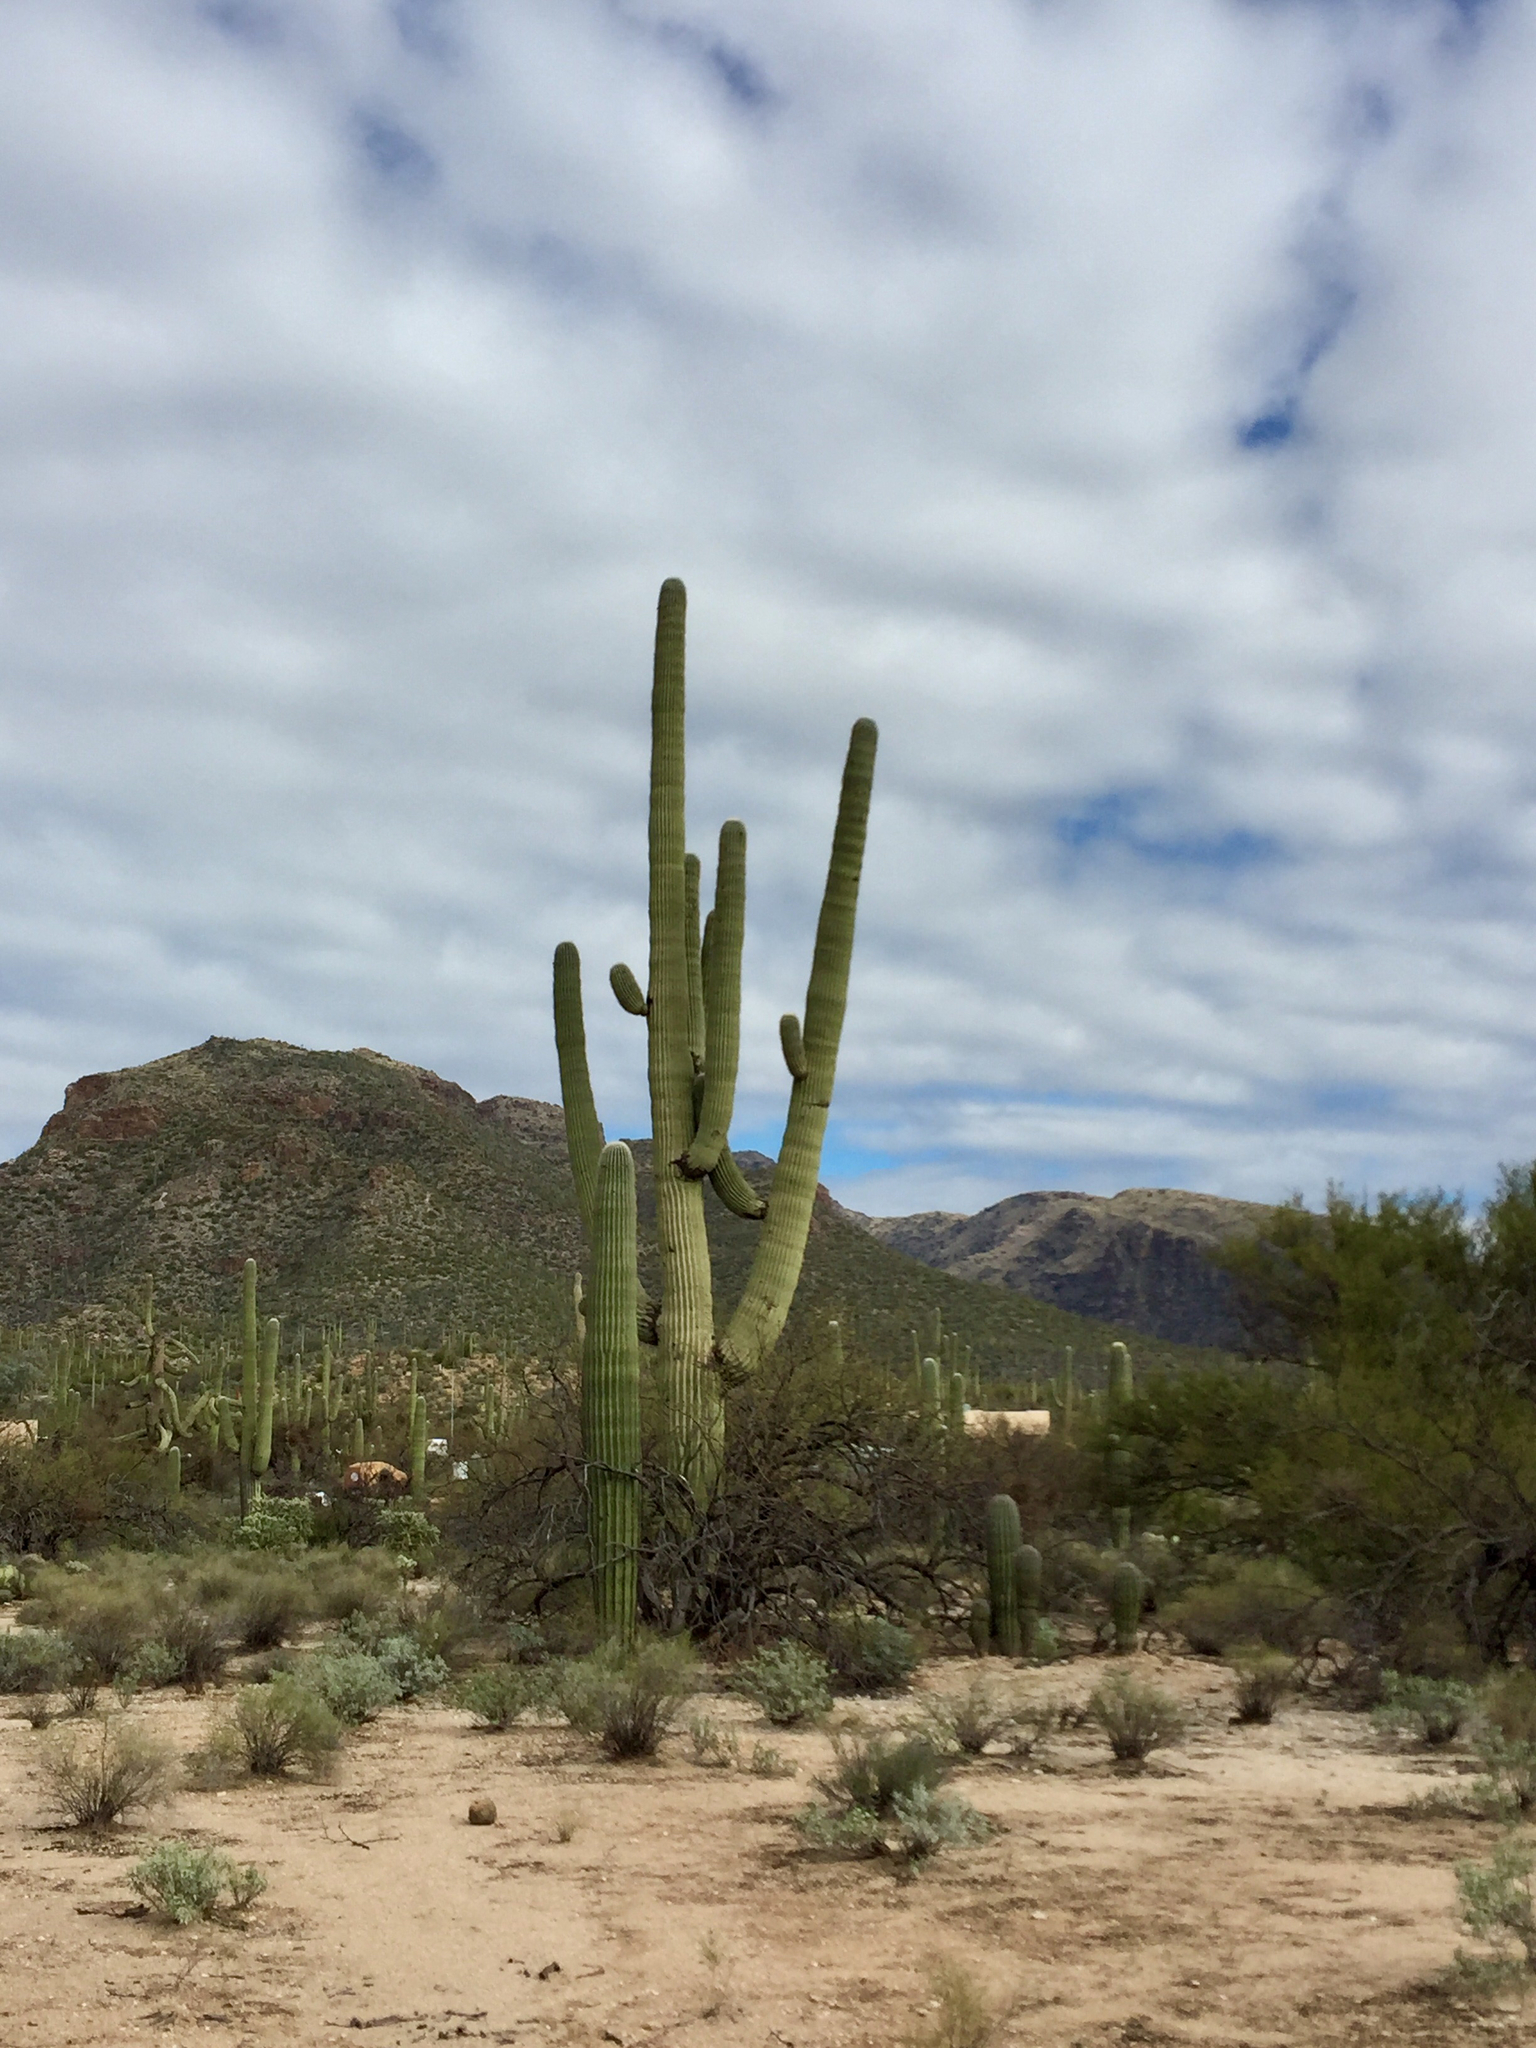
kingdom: Plantae
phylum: Tracheophyta
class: Magnoliopsida
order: Caryophyllales
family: Cactaceae
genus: Carnegiea
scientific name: Carnegiea gigantea
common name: Saguaro
